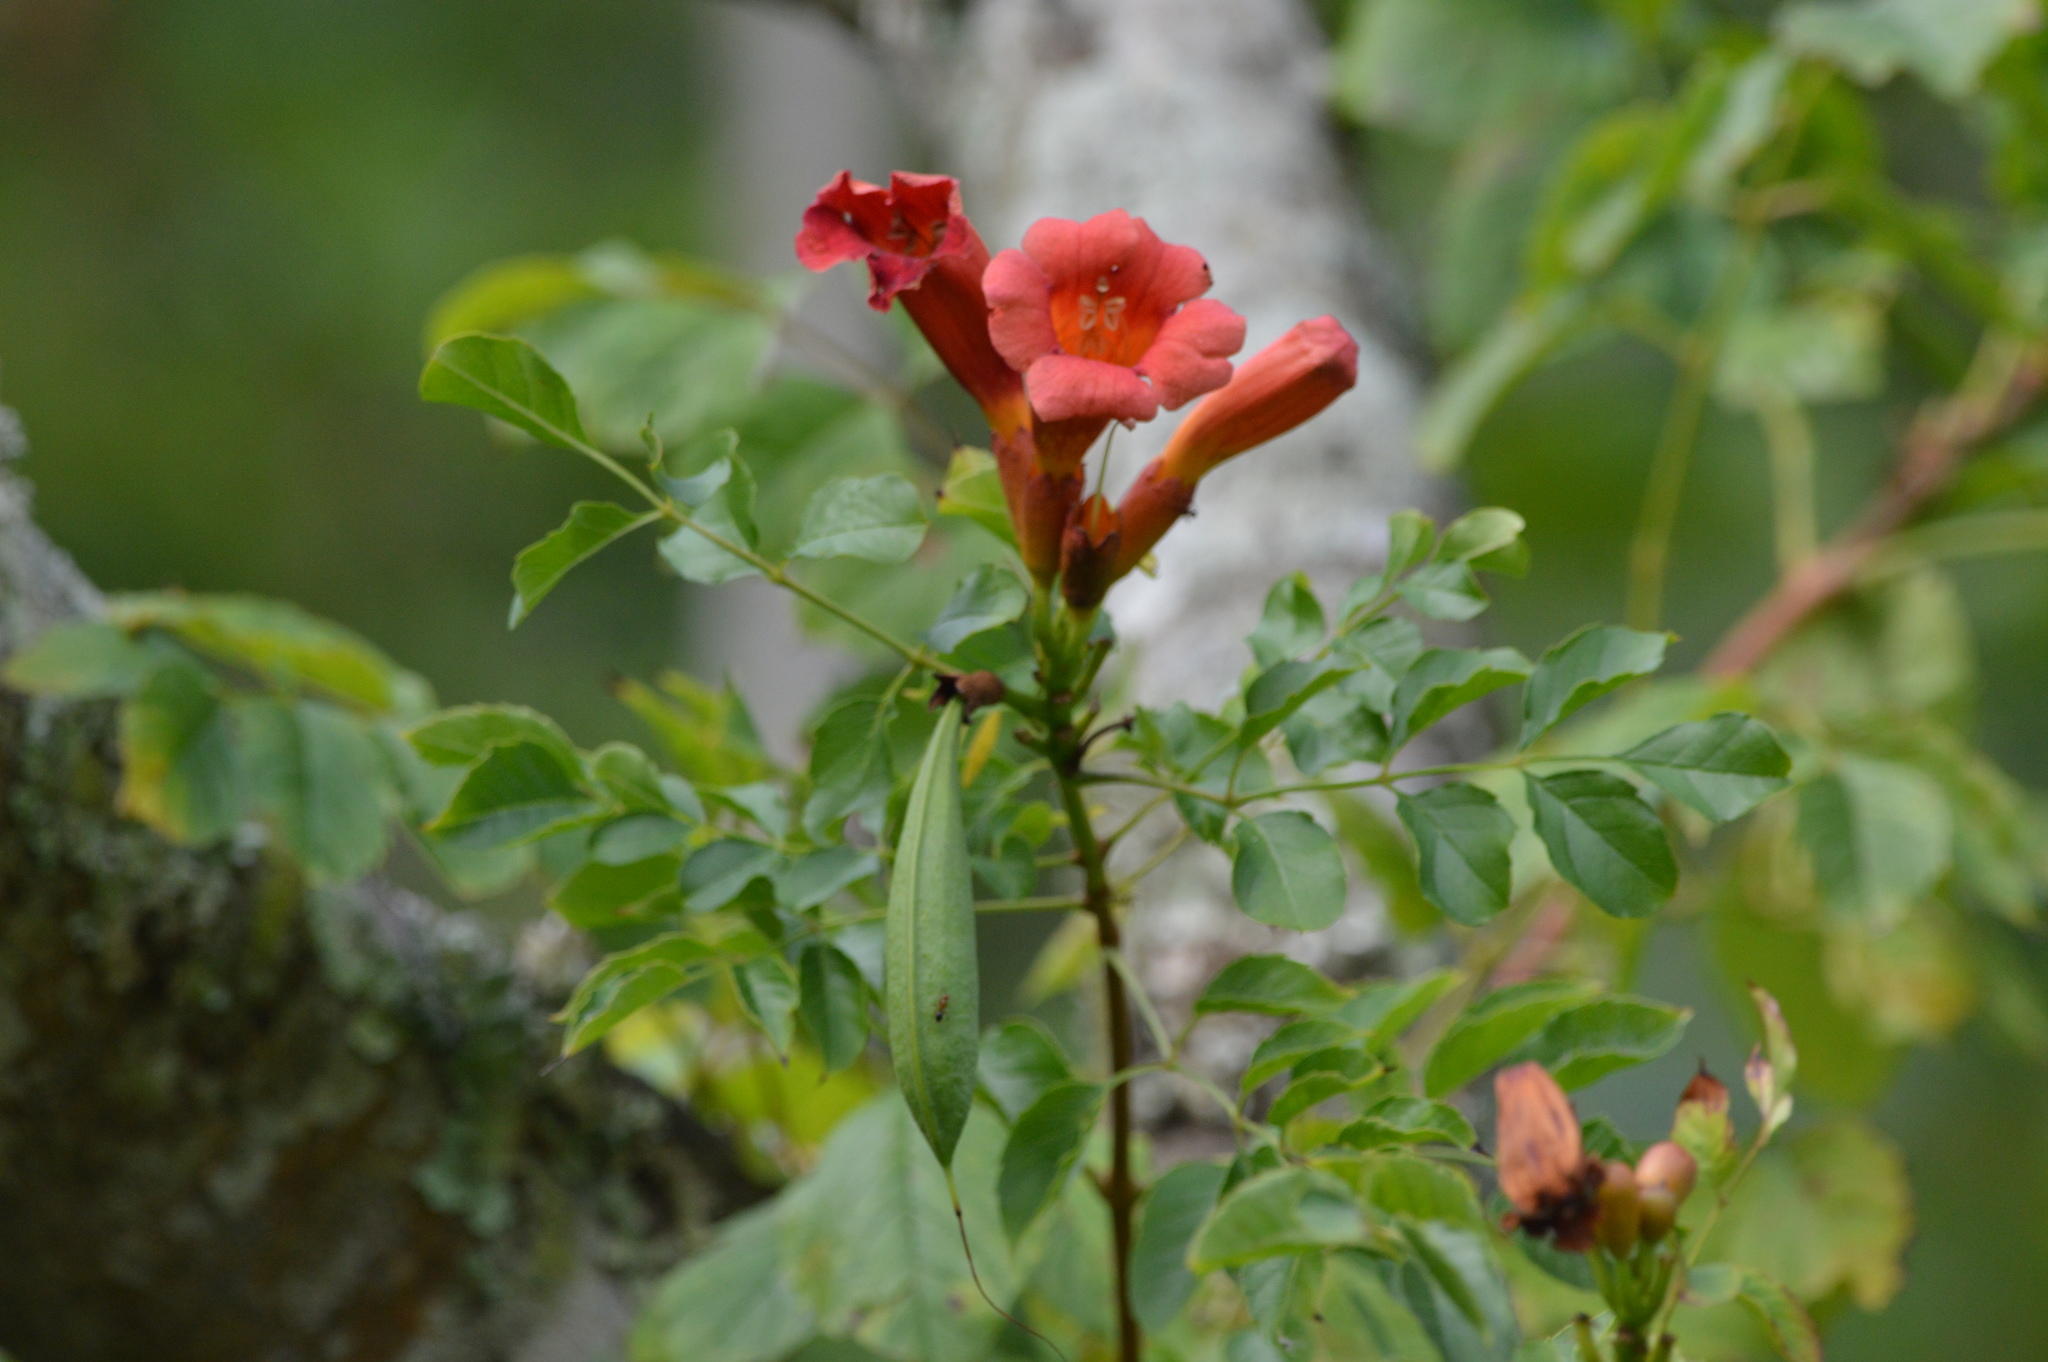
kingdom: Plantae
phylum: Tracheophyta
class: Magnoliopsida
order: Lamiales
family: Bignoniaceae
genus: Campsis
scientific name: Campsis radicans
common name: Trumpet-creeper
